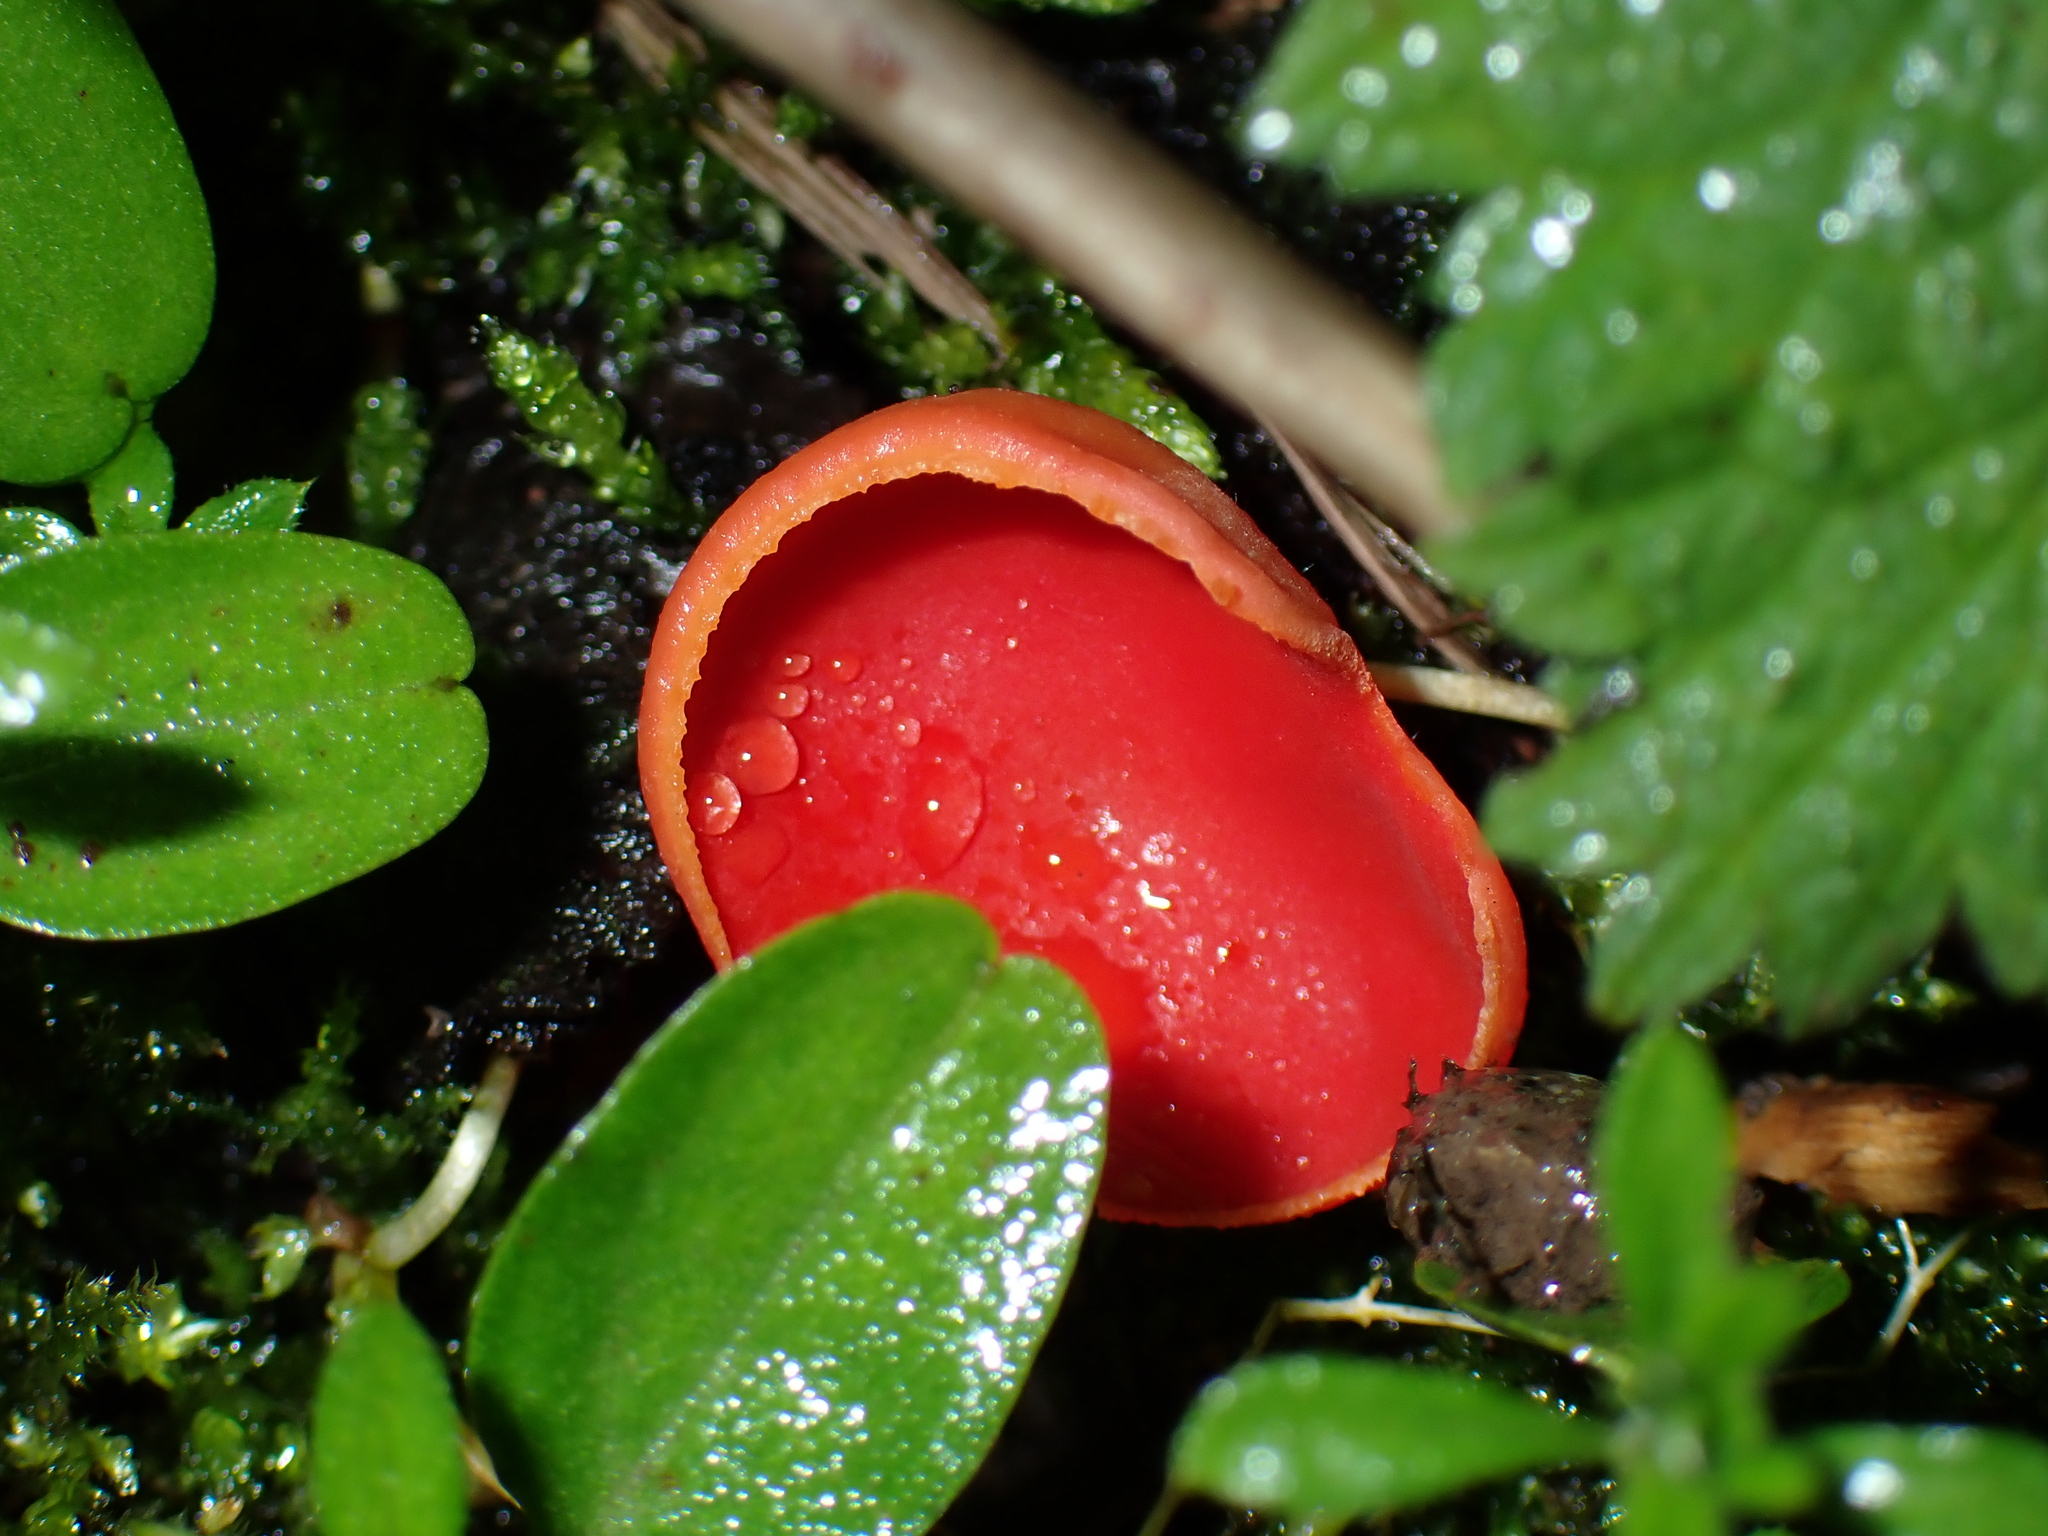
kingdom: Fungi
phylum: Ascomycota
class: Pezizomycetes
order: Pezizales
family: Sarcoscyphaceae
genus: Sarcoscypha
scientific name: Sarcoscypha
